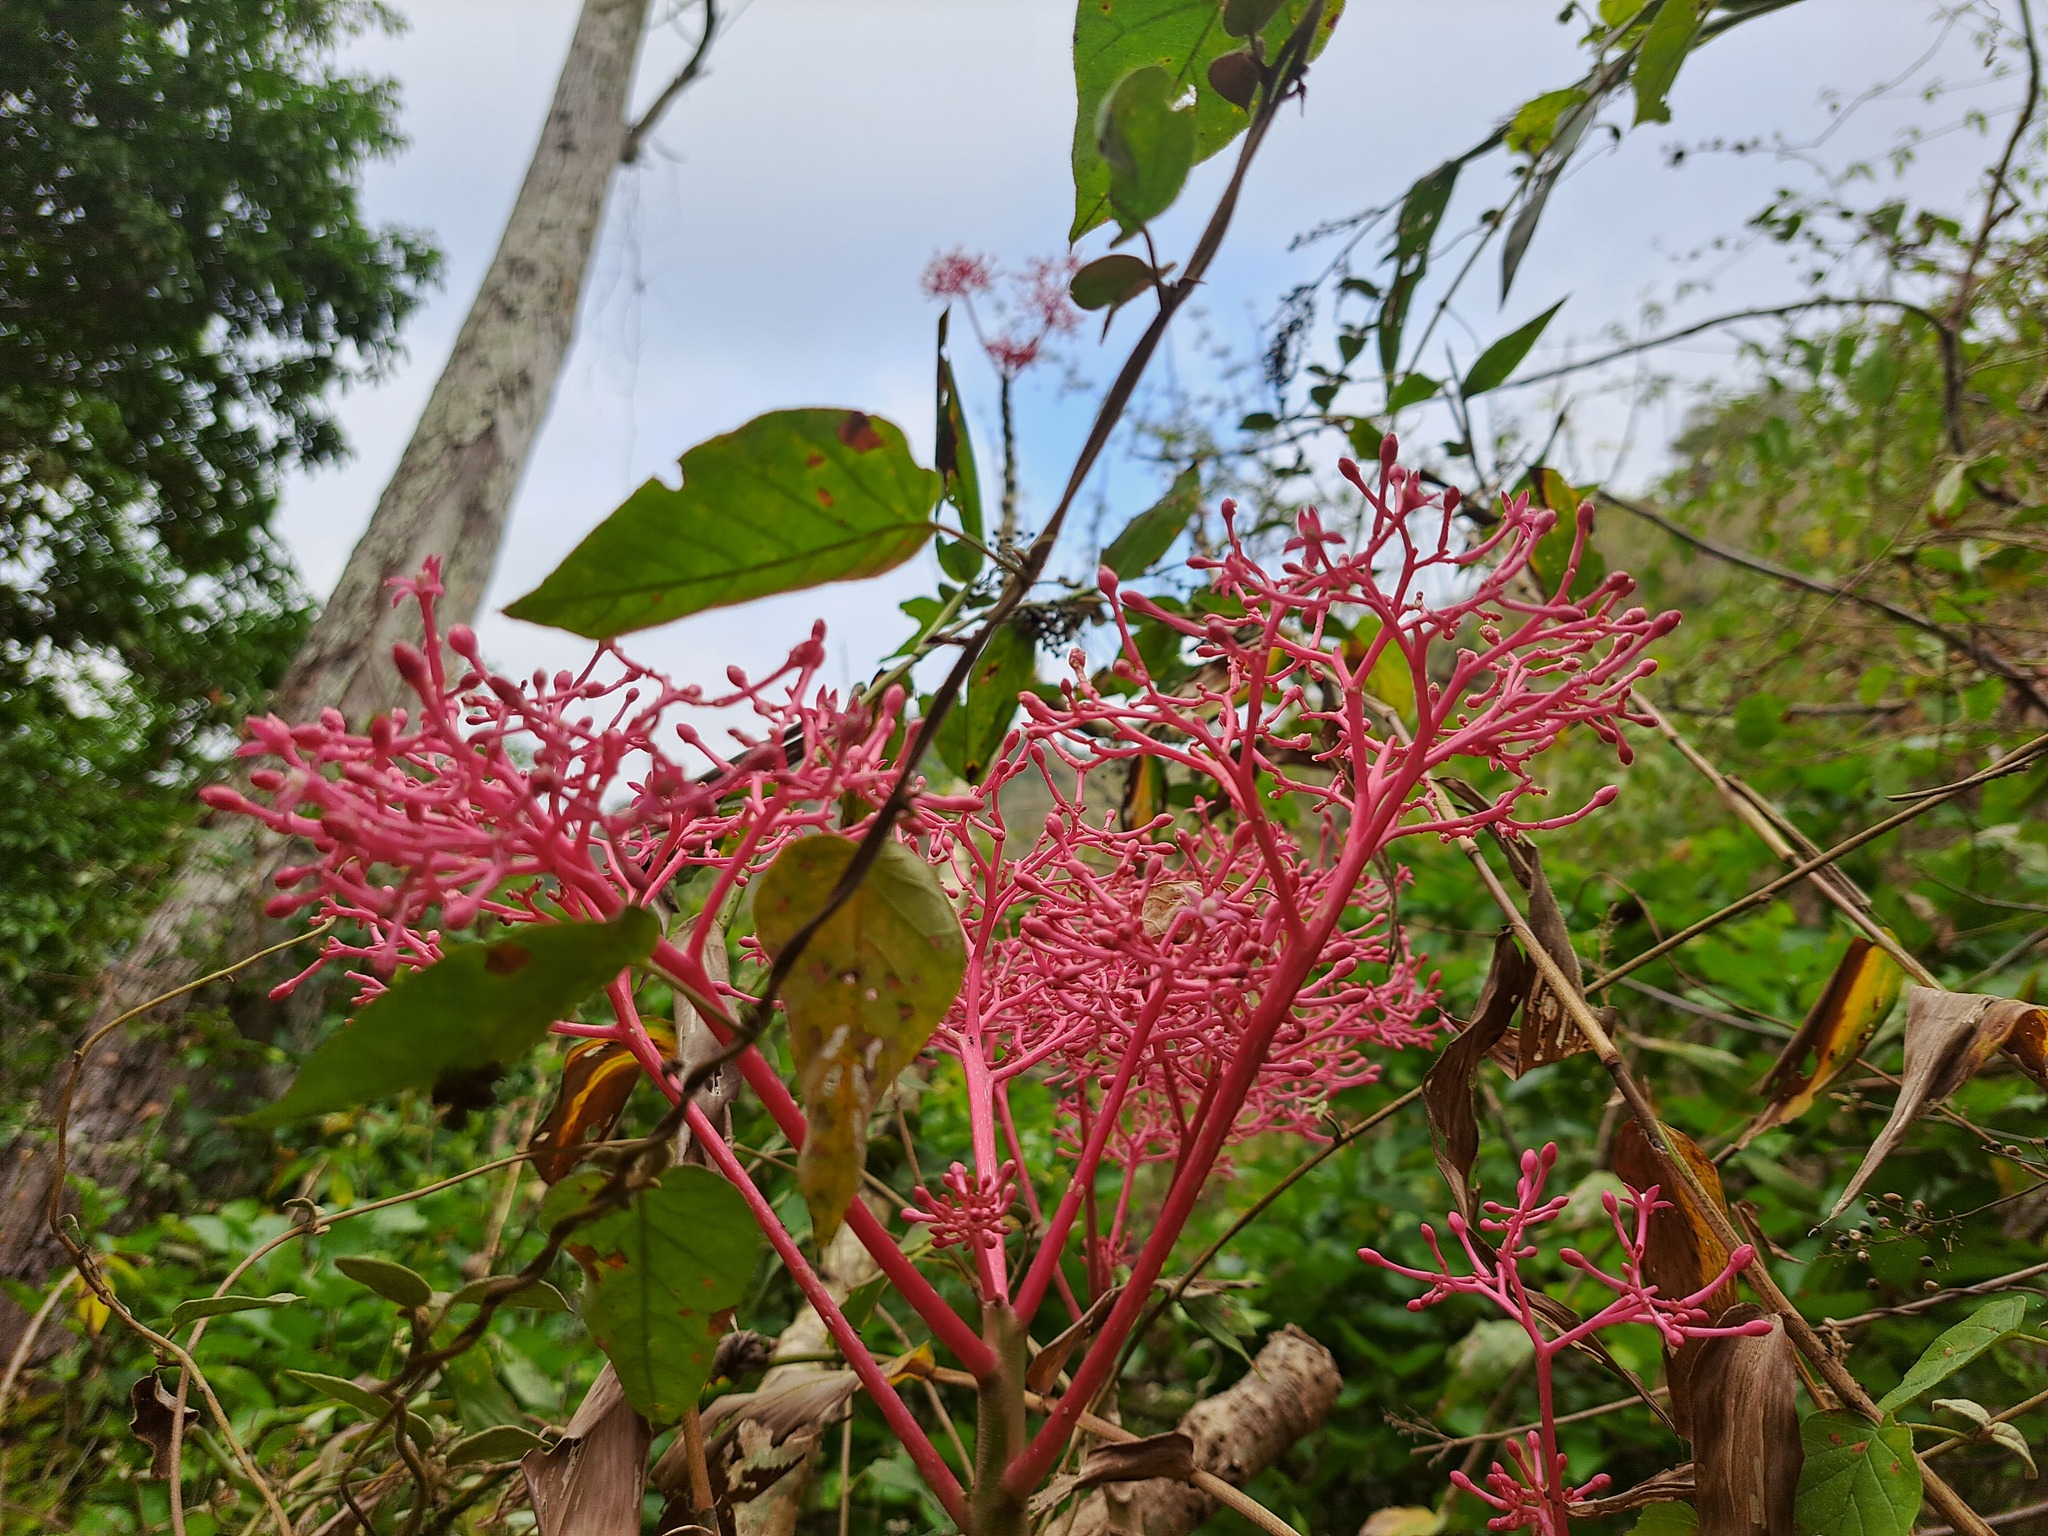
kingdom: Plantae
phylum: Tracheophyta
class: Magnoliopsida
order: Brassicales
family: Caricaceae
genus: Vasconcellea
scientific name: Vasconcellea parviflora
